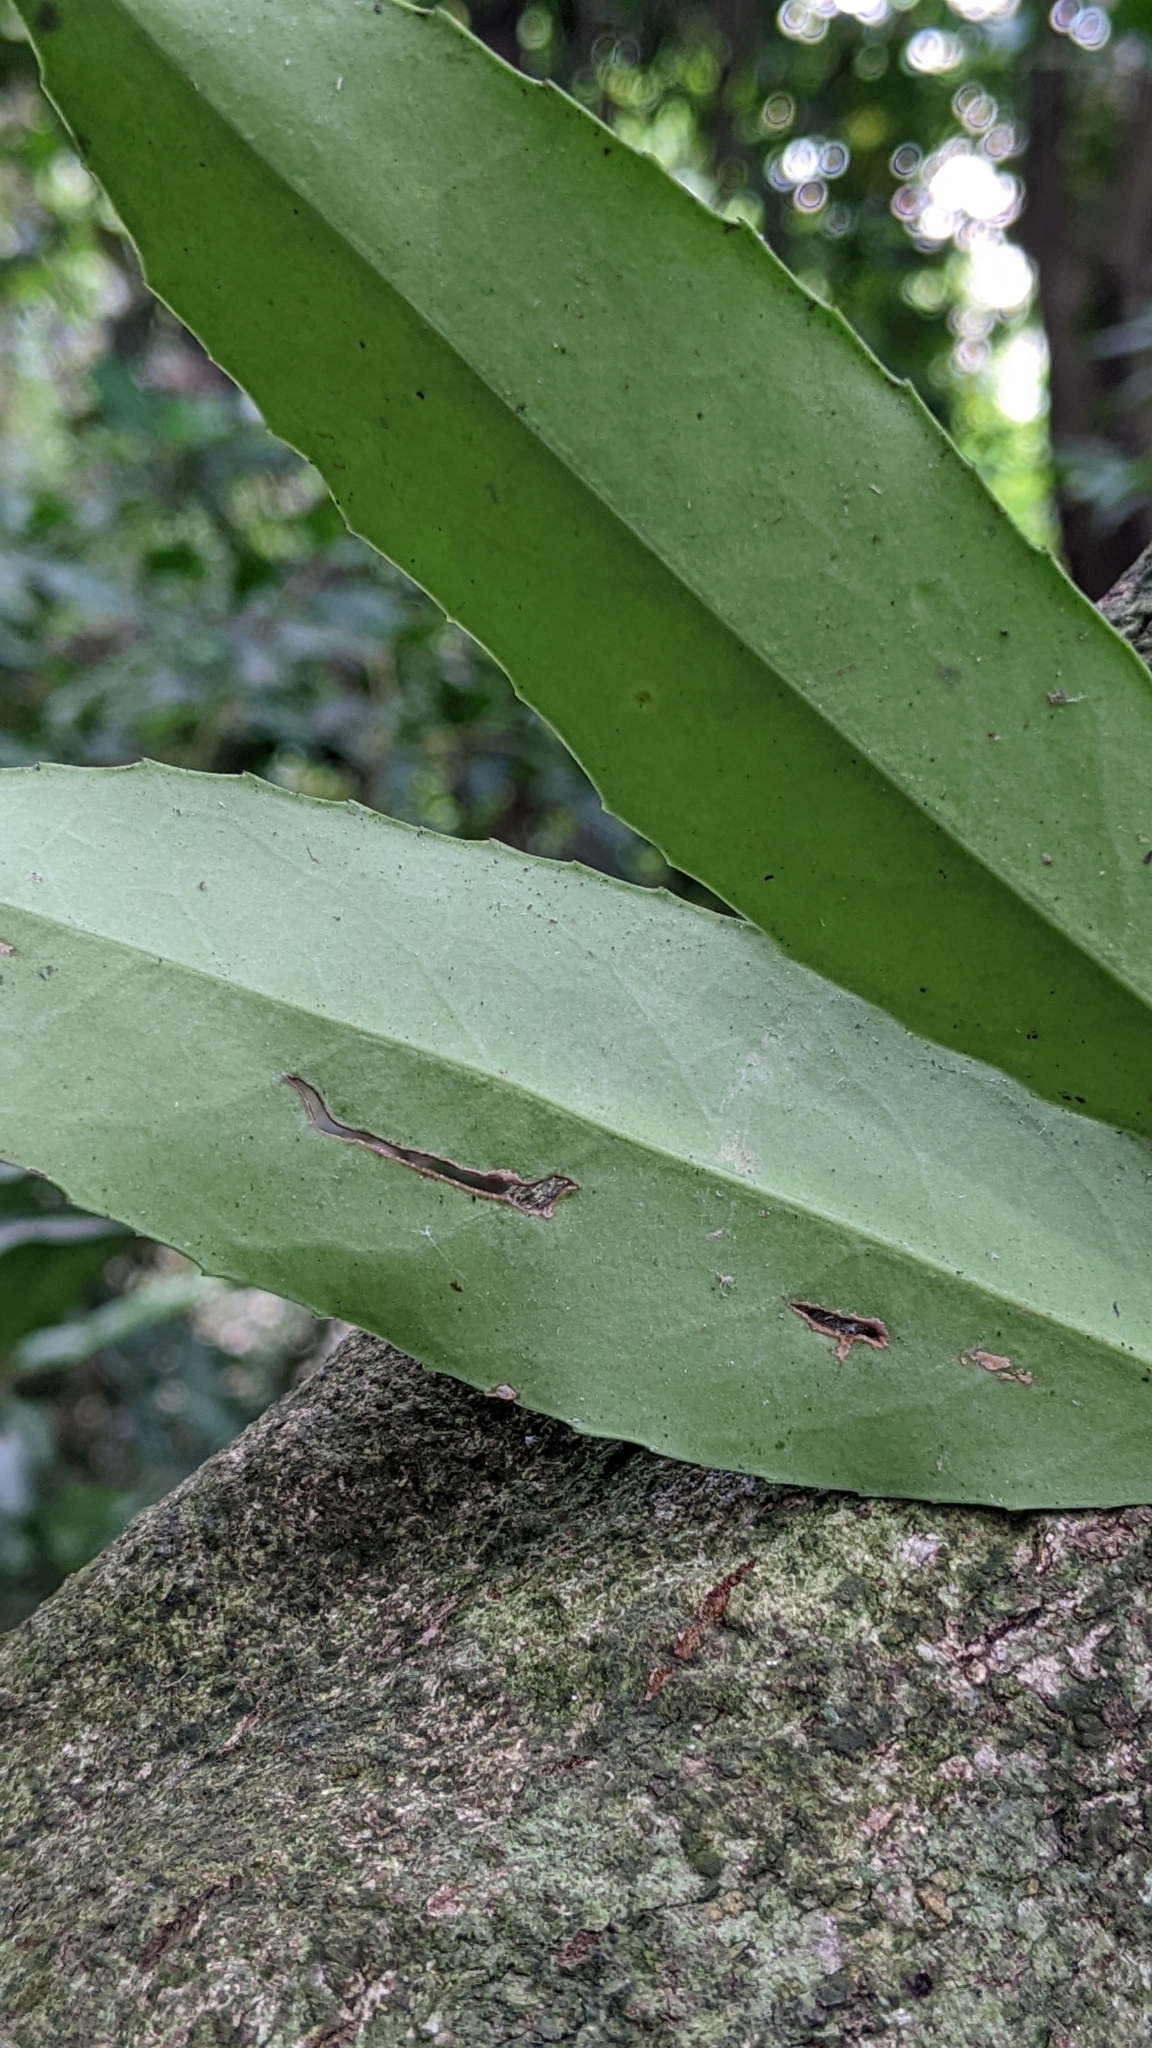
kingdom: Plantae
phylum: Tracheophyta
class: Magnoliopsida
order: Aquifoliales
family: Aquifoliaceae
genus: Ilex
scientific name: Ilex formosana
